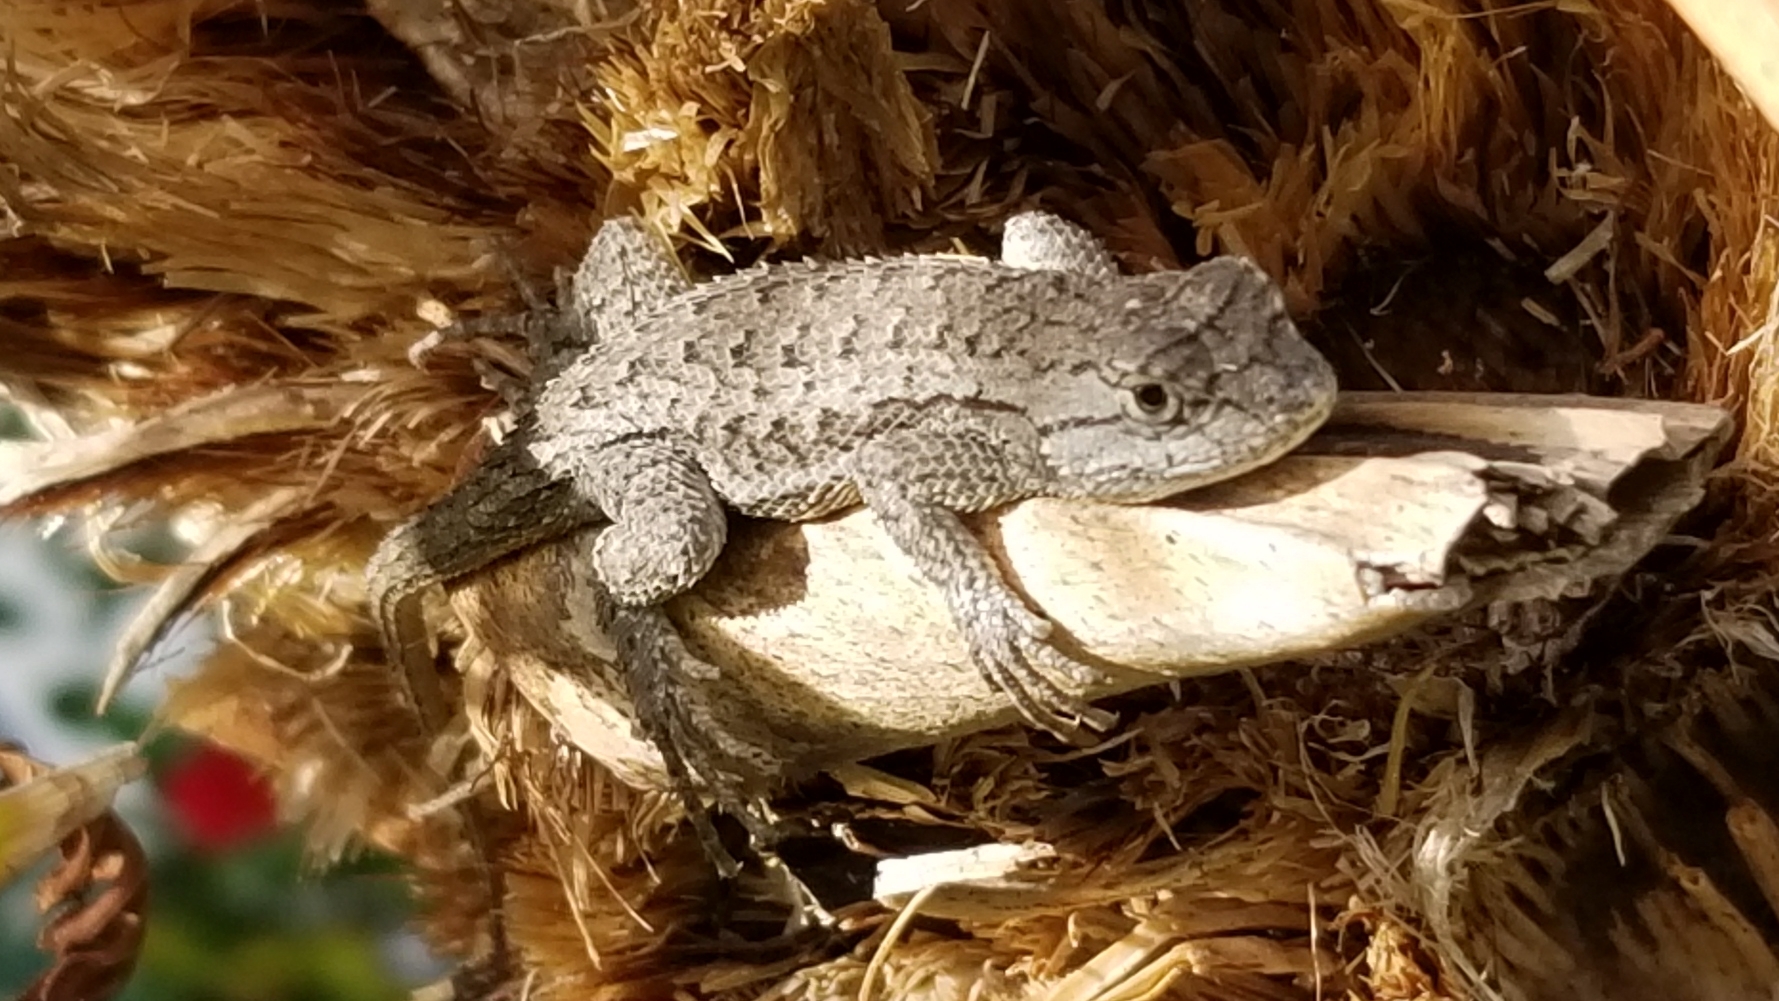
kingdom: Animalia
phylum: Chordata
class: Squamata
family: Phrynosomatidae
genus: Sceloporus
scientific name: Sceloporus occidentalis
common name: Western fence lizard
